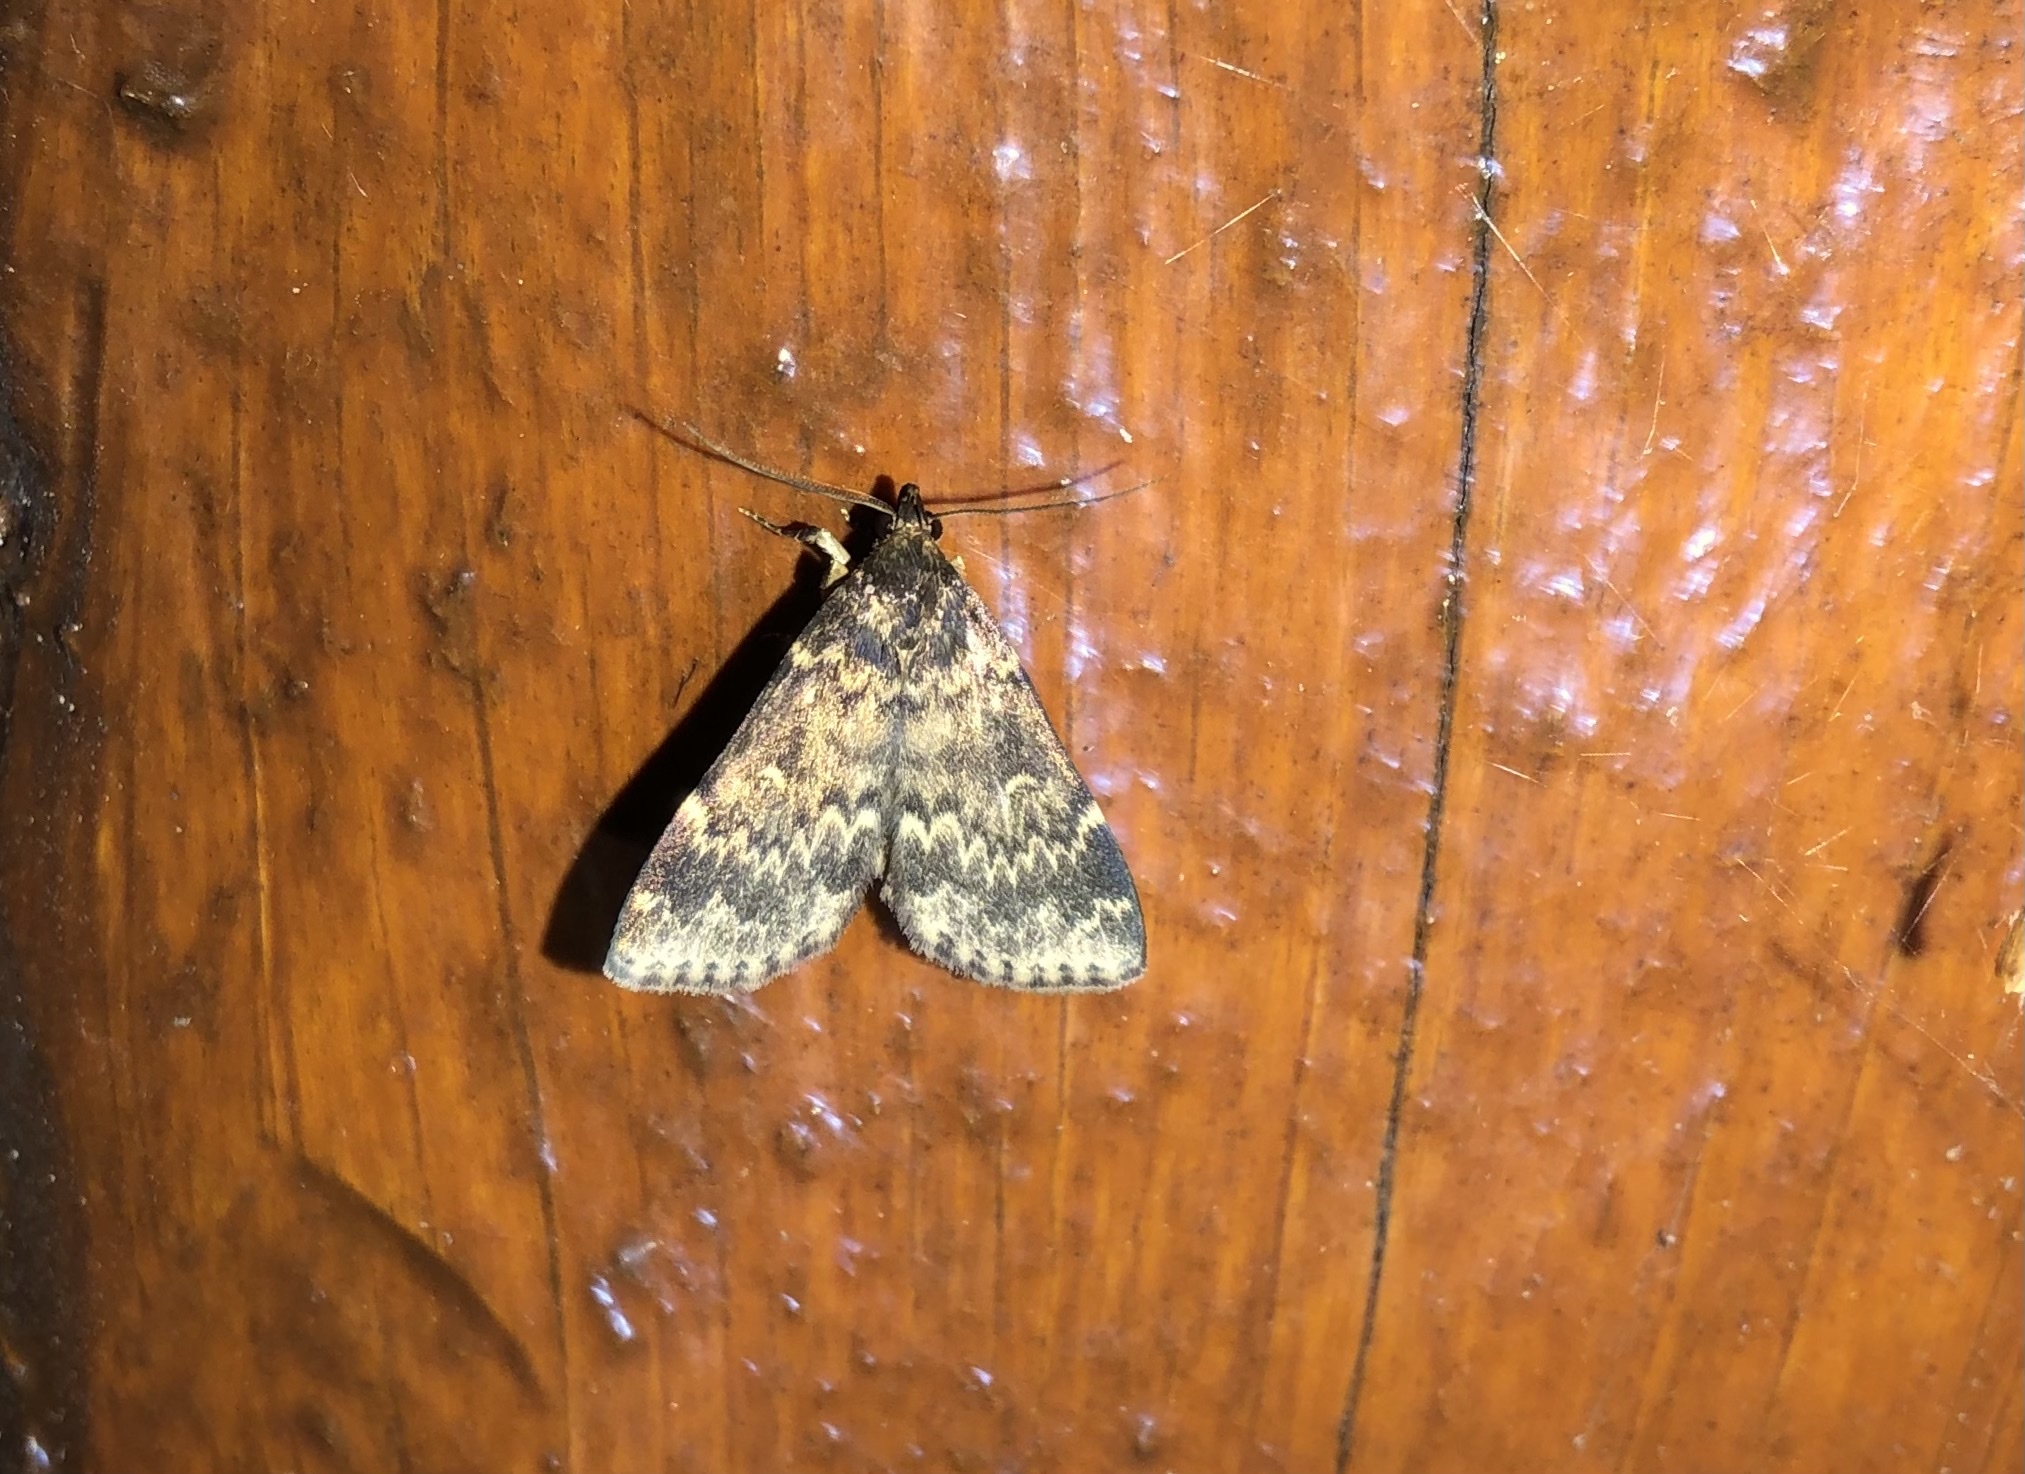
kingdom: Animalia
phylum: Arthropoda
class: Insecta
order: Lepidoptera
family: Erebidae
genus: Idia
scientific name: Idia lubricalis
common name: Twin-striped tabby
